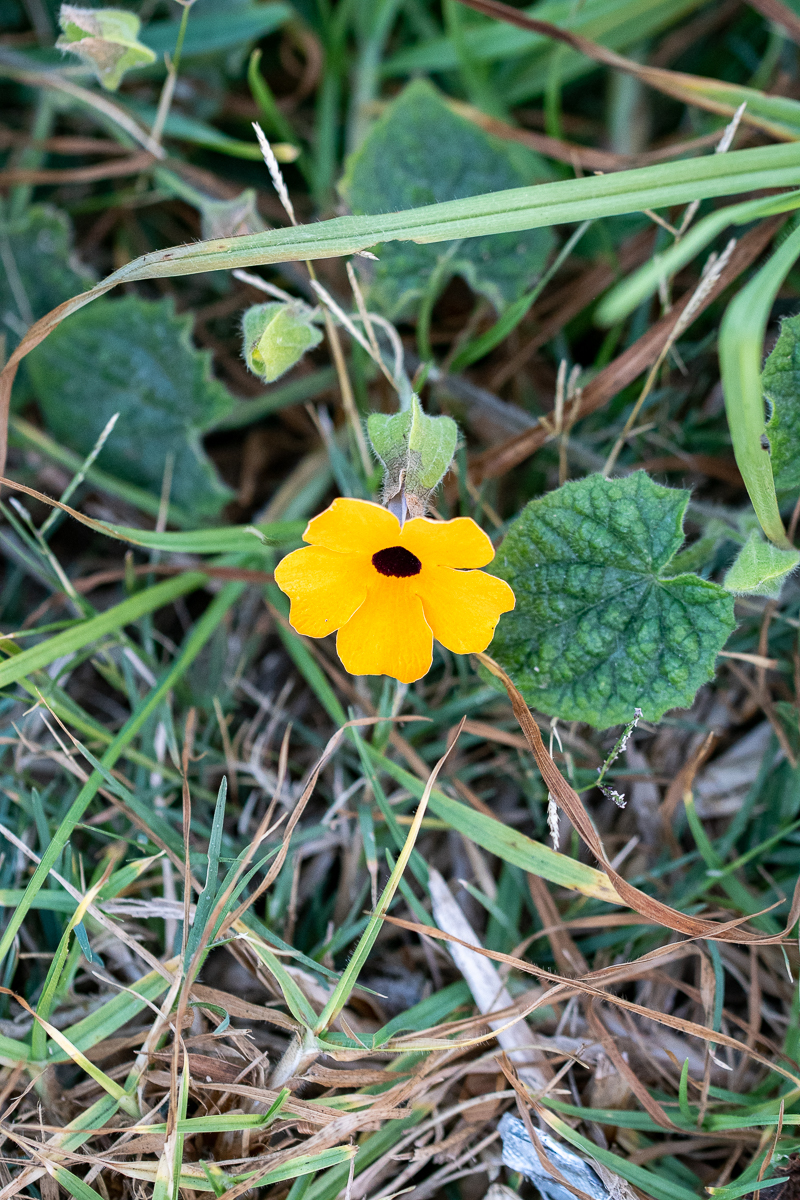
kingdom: Plantae
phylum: Tracheophyta
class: Magnoliopsida
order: Lamiales
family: Acanthaceae
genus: Thunbergia
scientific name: Thunbergia alata
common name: Blackeyed susan vine
